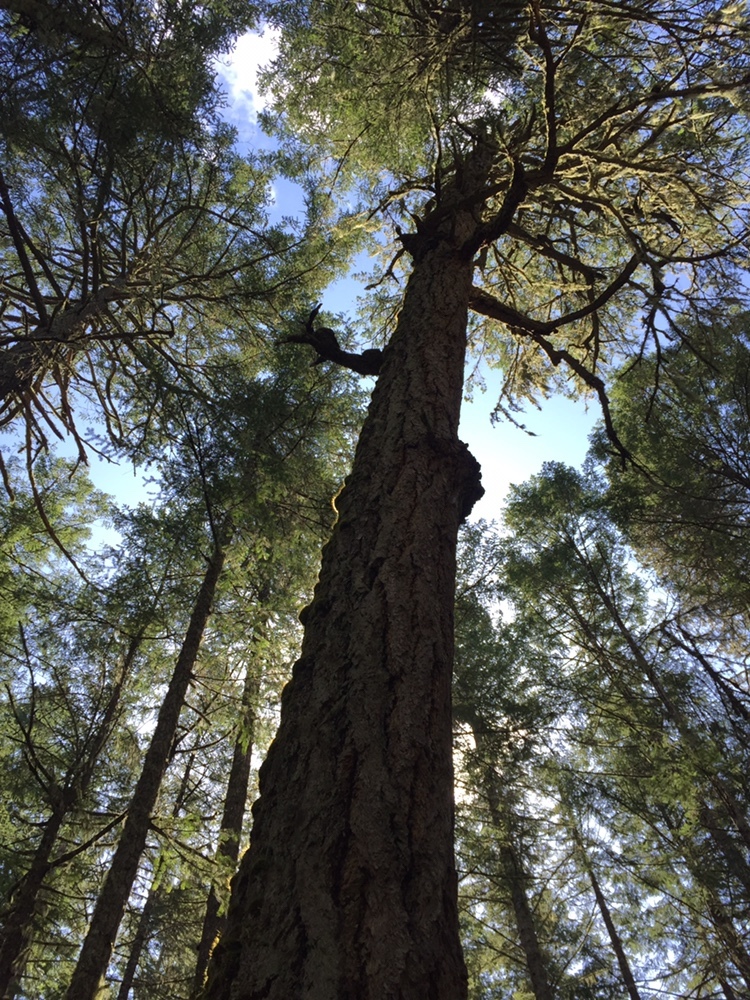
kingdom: Plantae
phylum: Tracheophyta
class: Pinopsida
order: Pinales
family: Pinaceae
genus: Pseudotsuga
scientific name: Pseudotsuga menziesii
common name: Douglas fir
